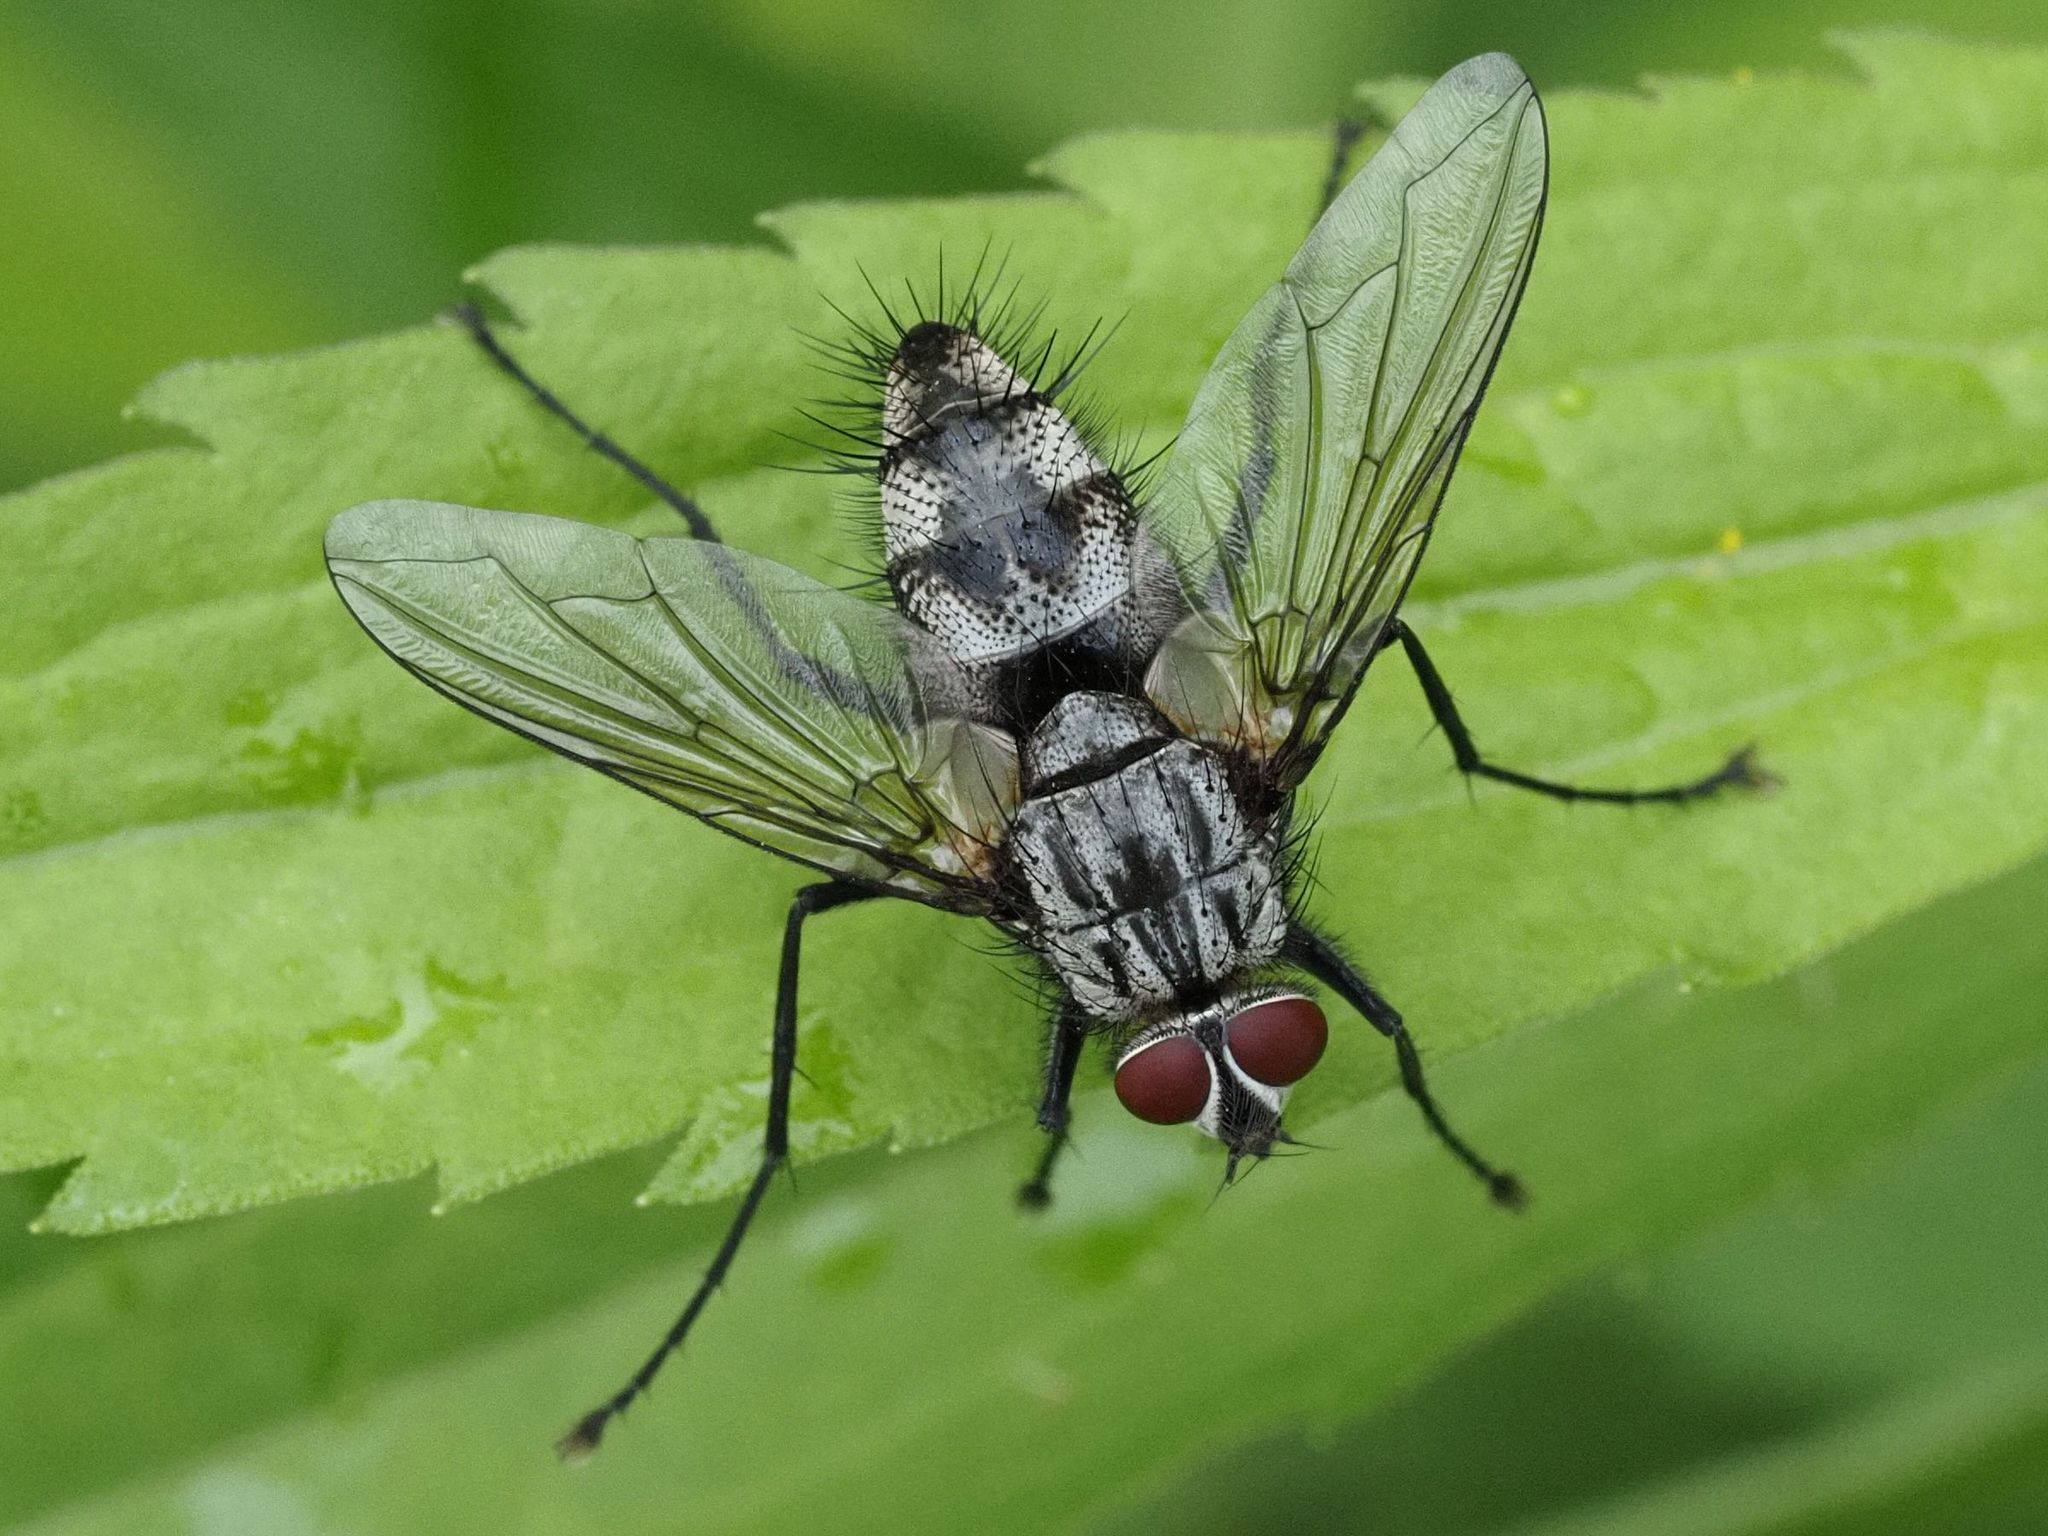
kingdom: Animalia
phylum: Arthropoda
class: Insecta
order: Diptera
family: Tachinidae
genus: Dinera
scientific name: Dinera ferina
